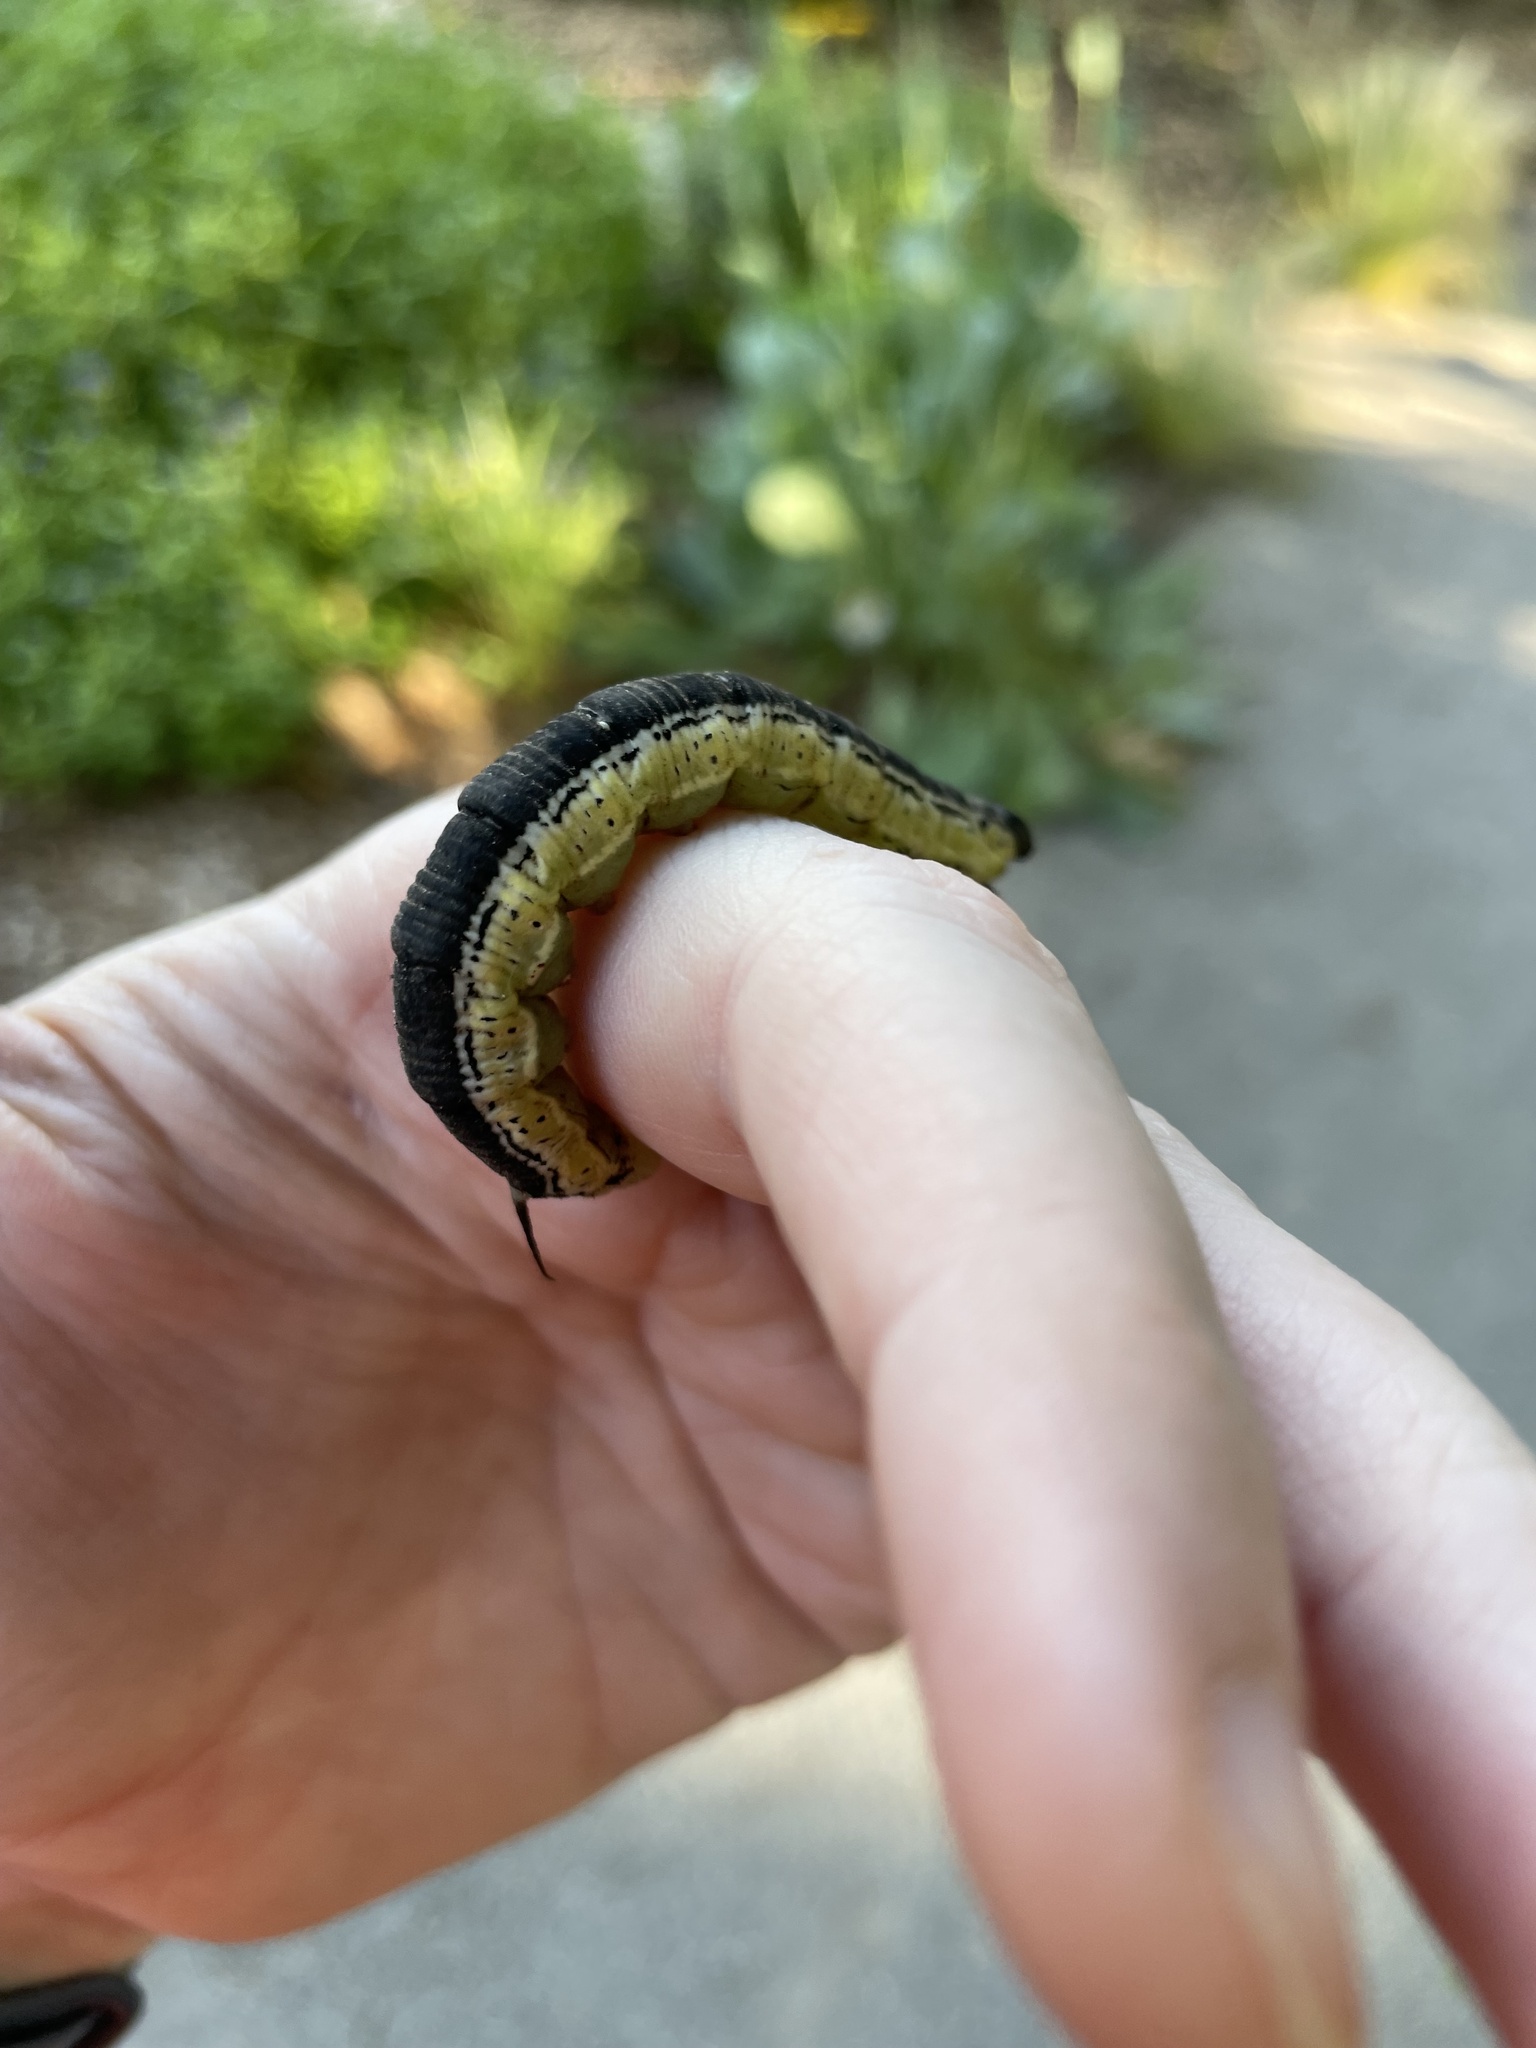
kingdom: Animalia
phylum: Arthropoda
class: Insecta
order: Lepidoptera
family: Sphingidae
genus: Ceratomia
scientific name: Ceratomia catalpae
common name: Catalpa hornworm
